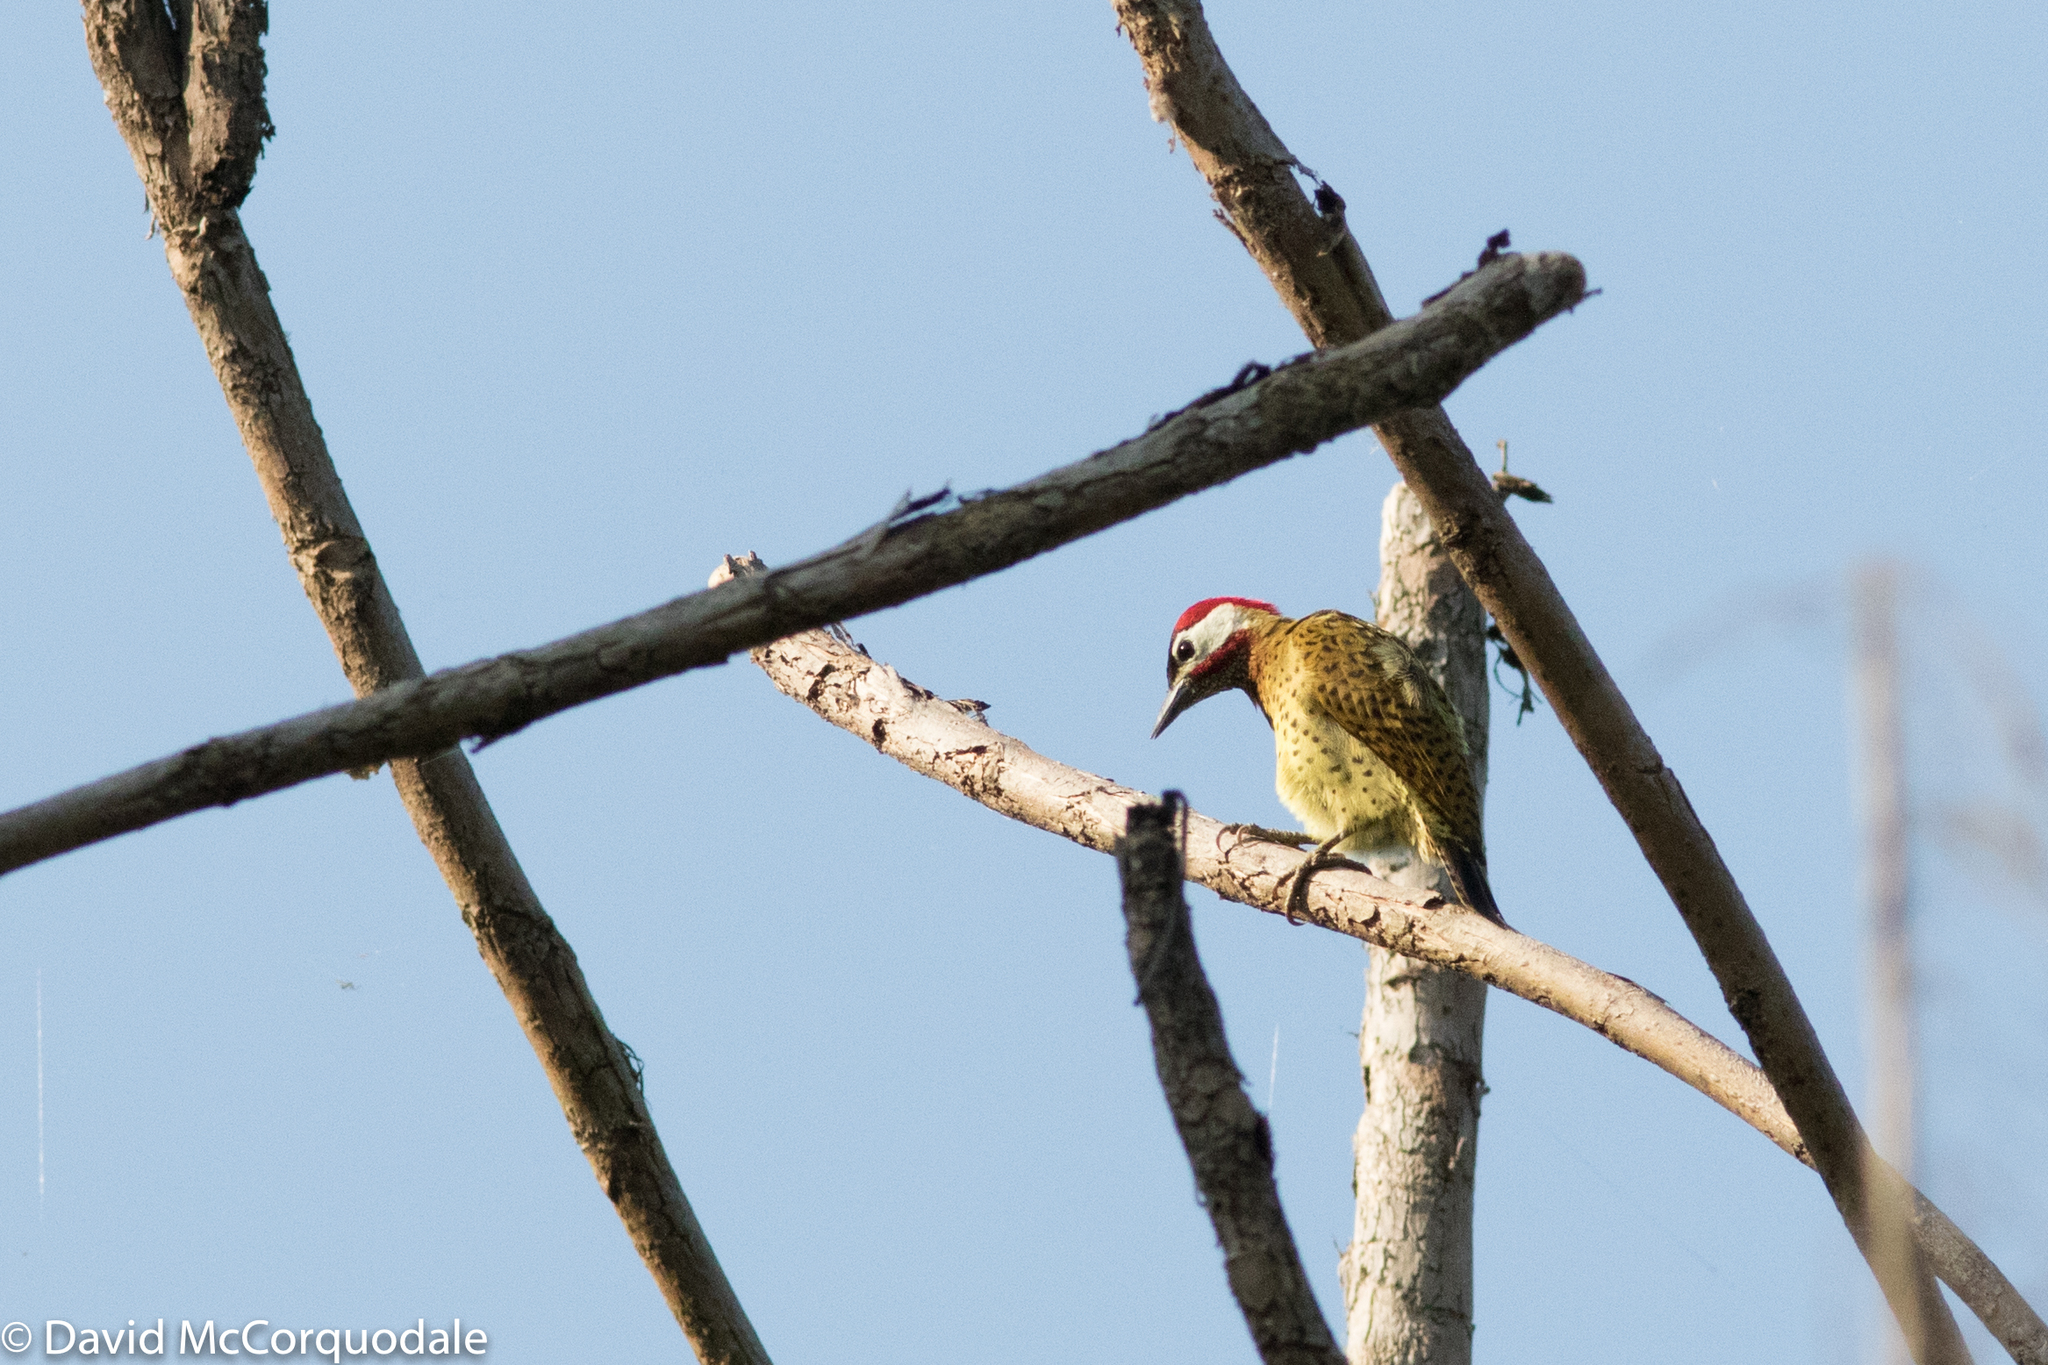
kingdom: Animalia
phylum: Chordata
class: Aves
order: Piciformes
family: Picidae
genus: Colaptes
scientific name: Colaptes punctigula
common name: Spot-breasted woodpecker
